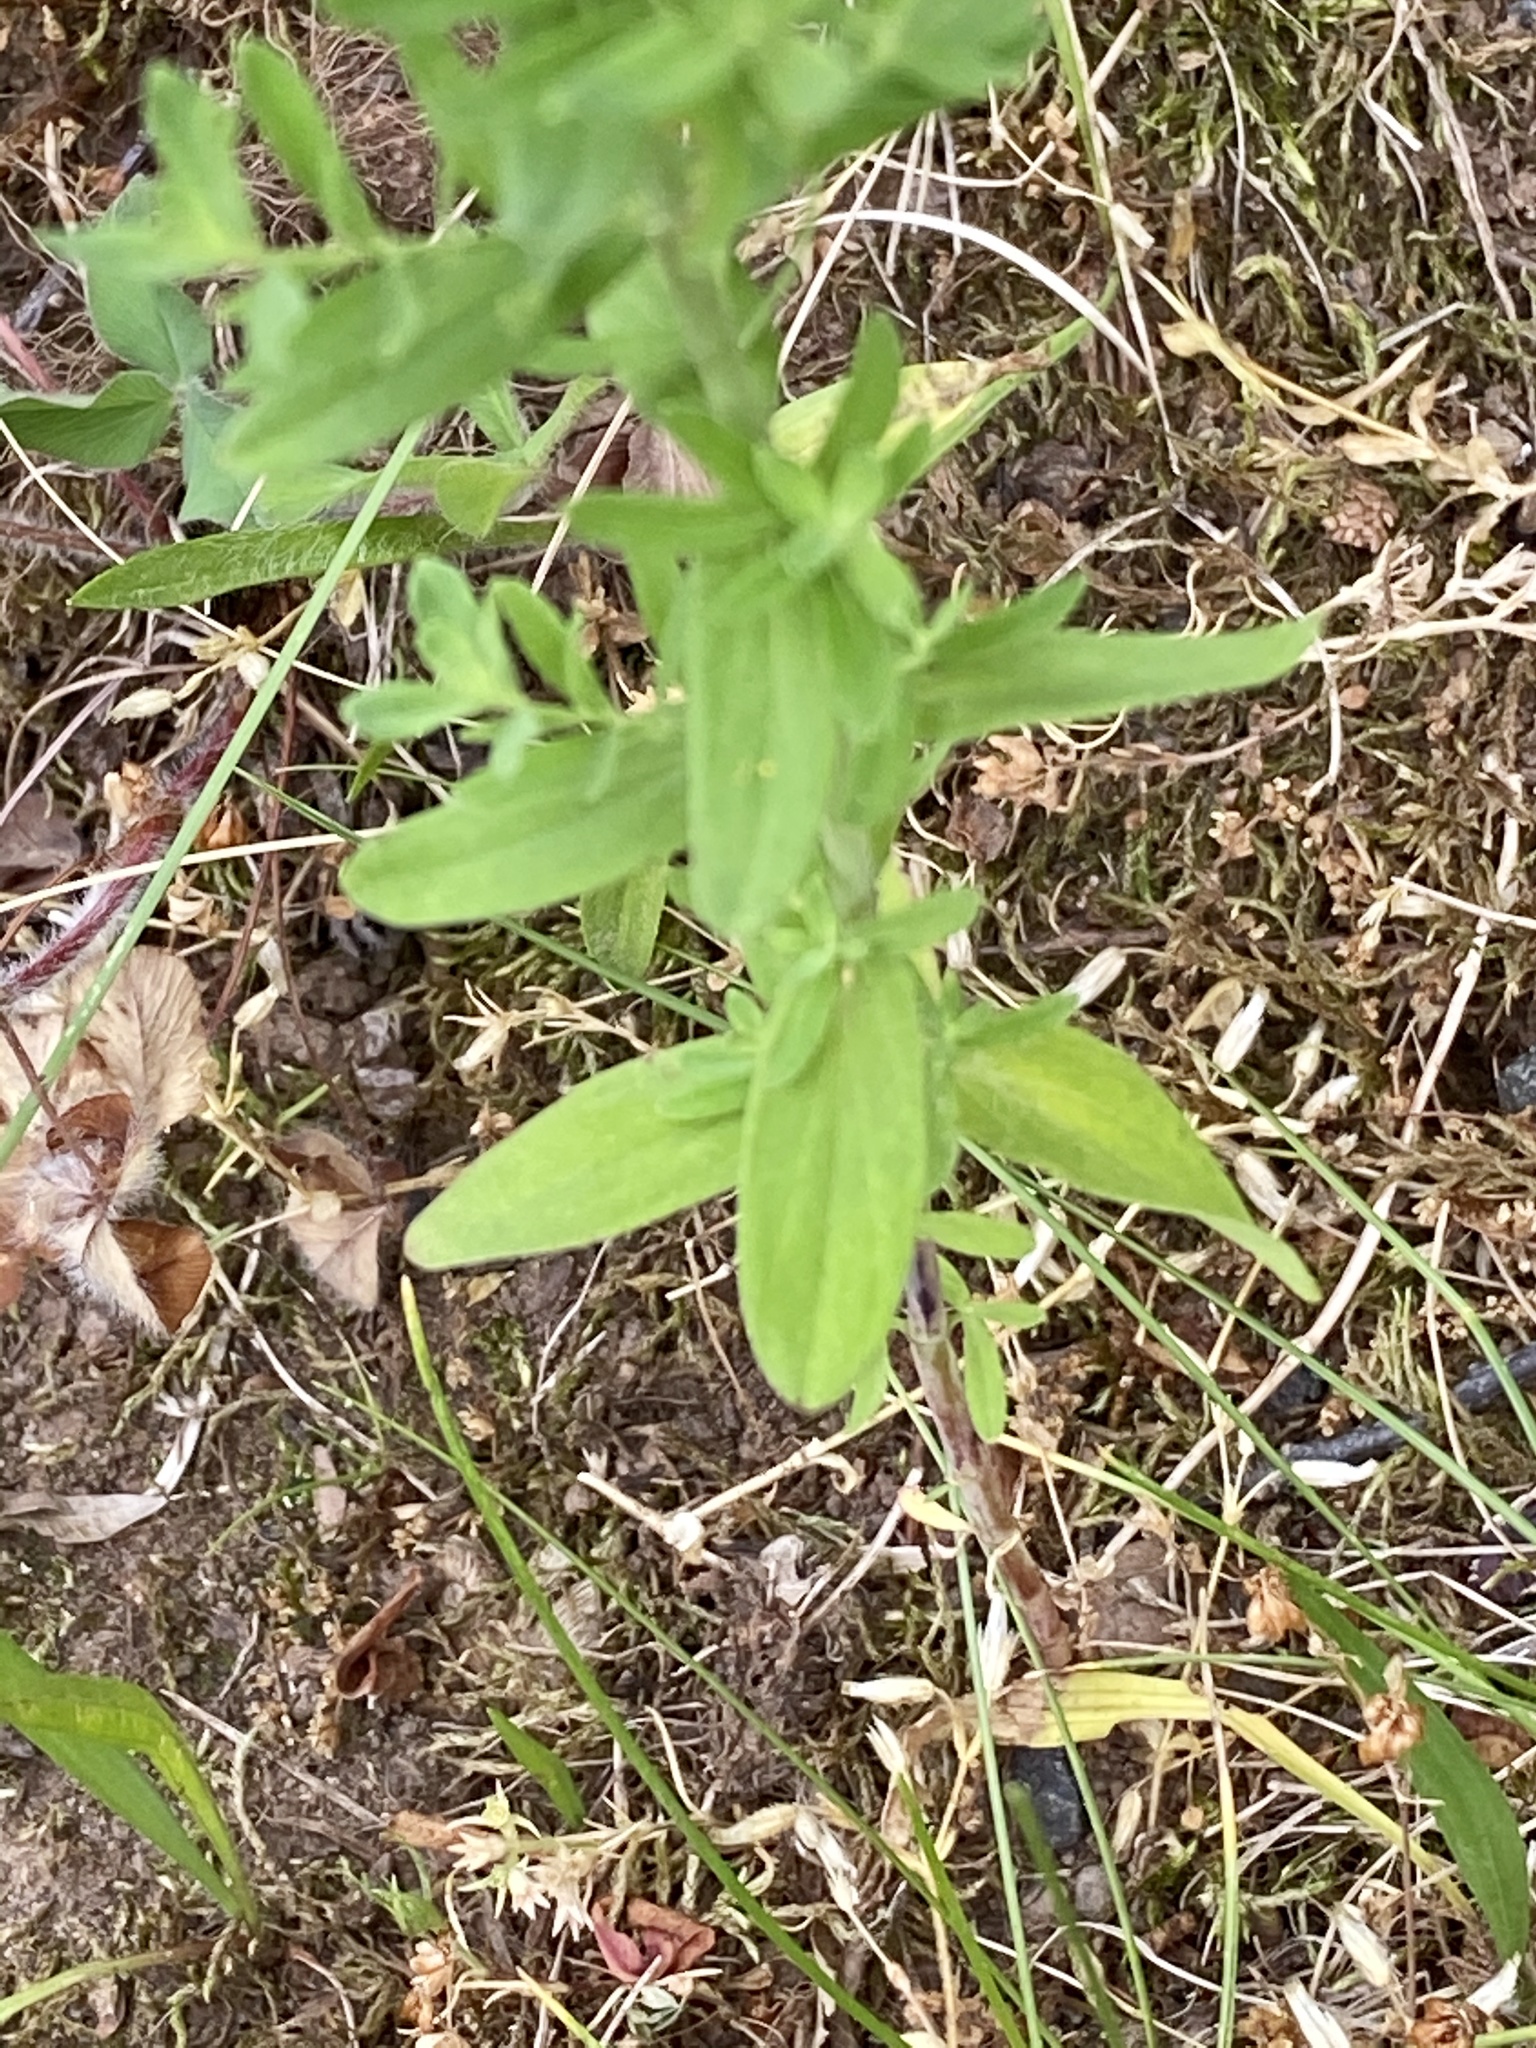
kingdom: Plantae
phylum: Tracheophyta
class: Magnoliopsida
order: Malpighiales
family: Hypericaceae
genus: Hypericum
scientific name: Hypericum perforatum
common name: Common st. johnswort
